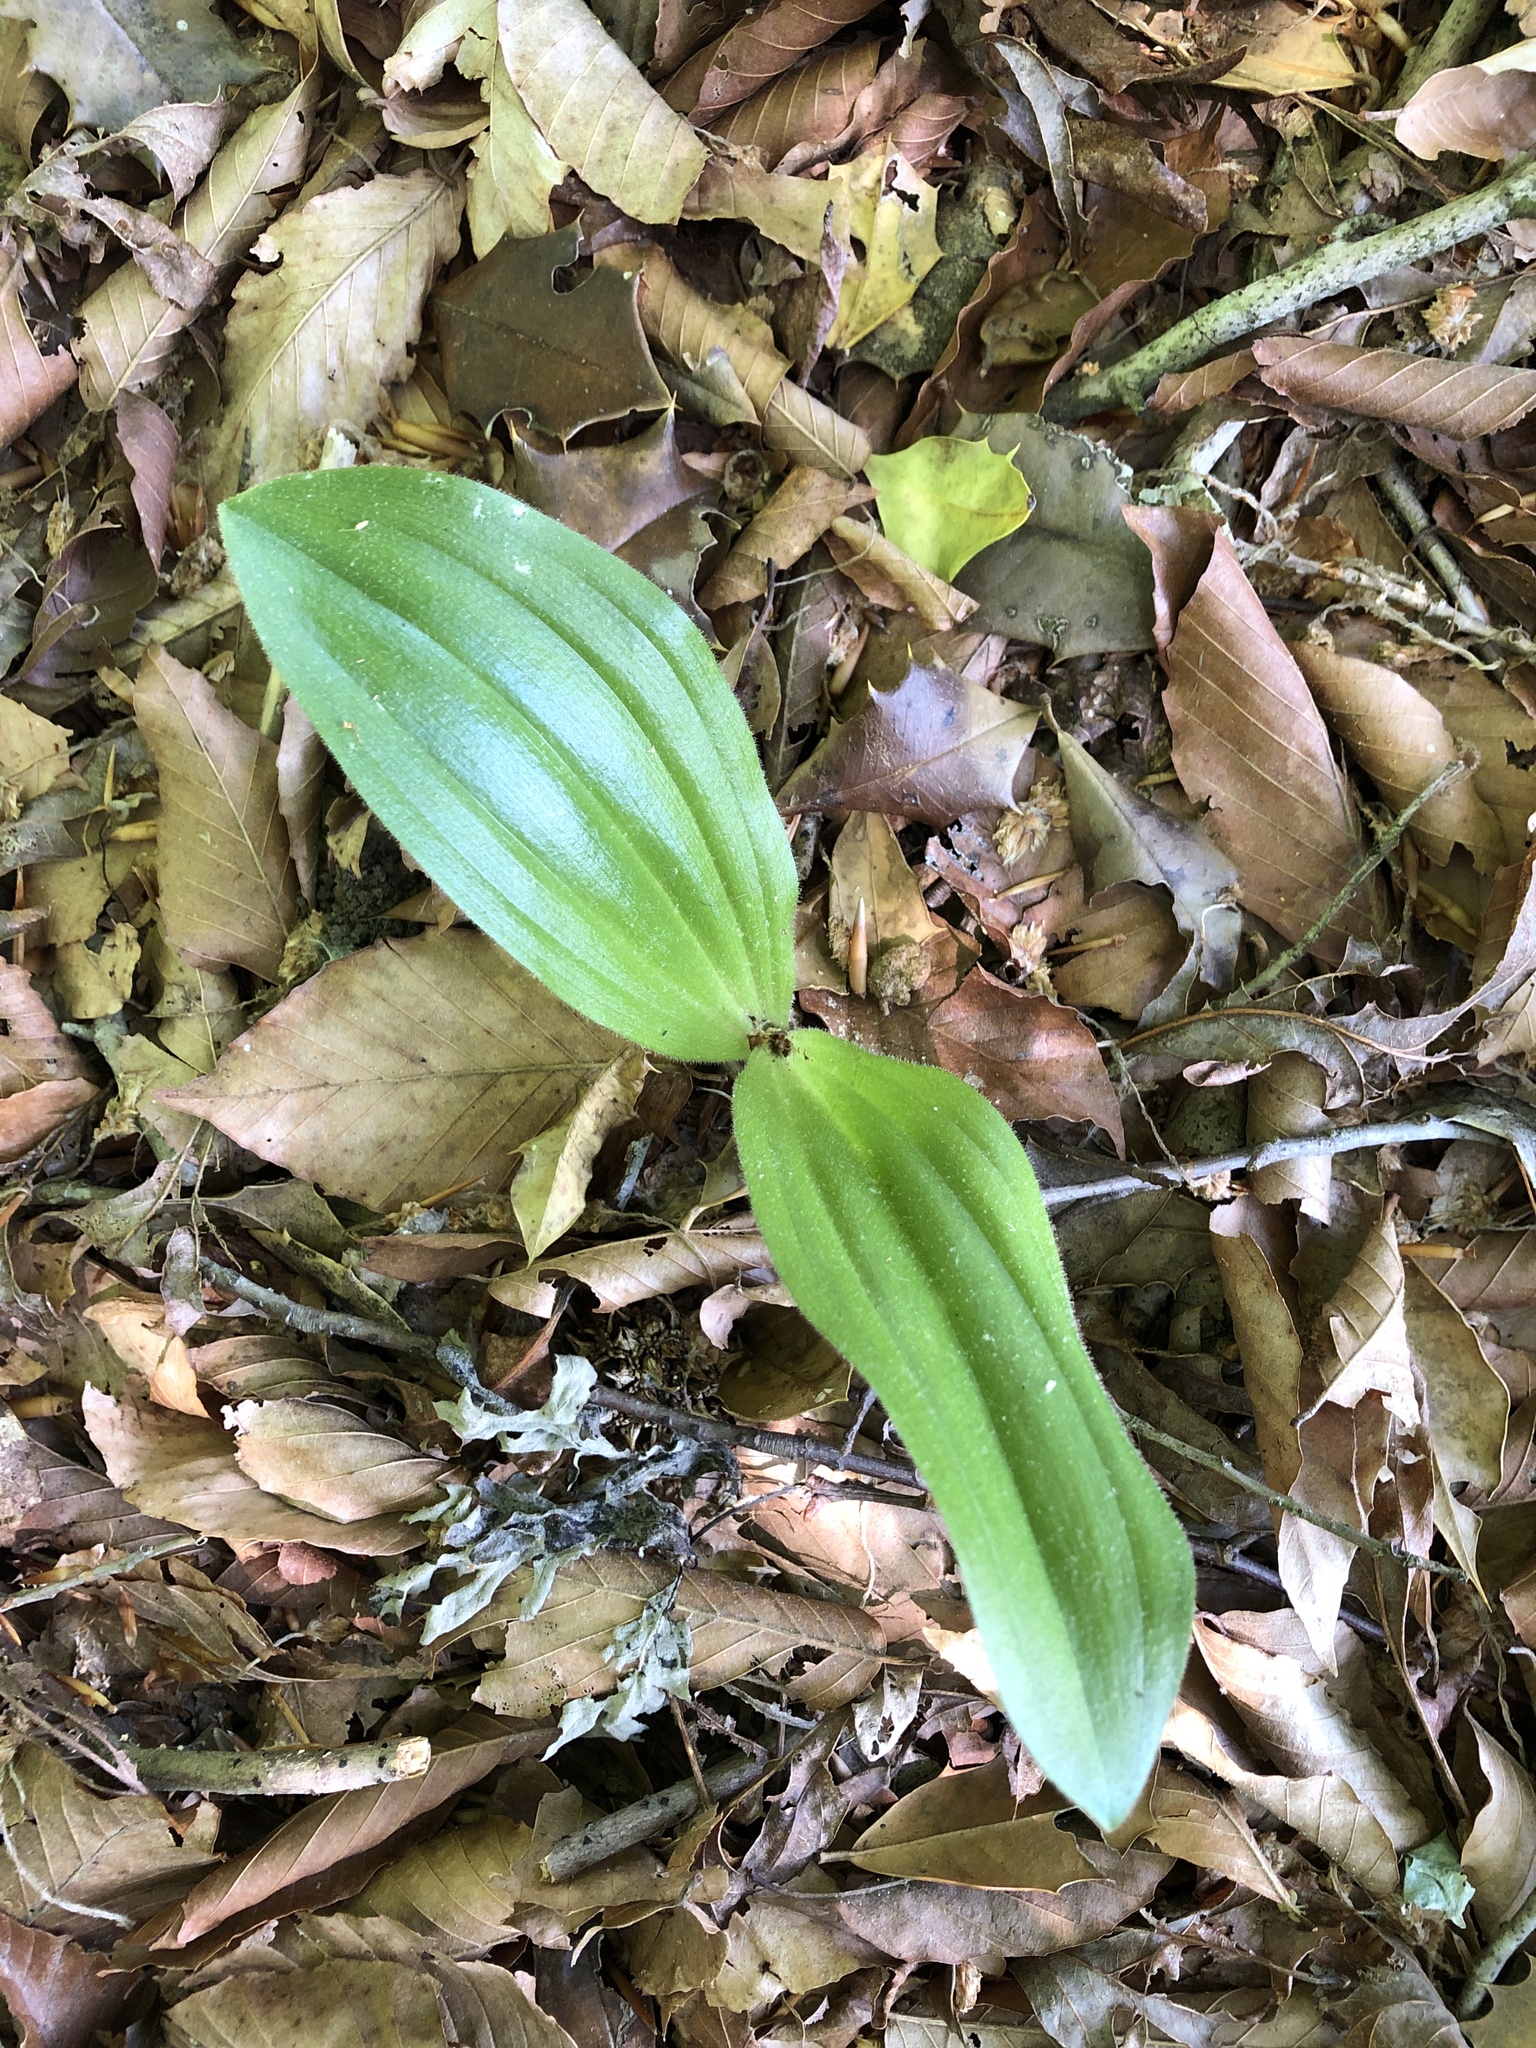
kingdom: Plantae
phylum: Tracheophyta
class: Liliopsida
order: Asparagales
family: Orchidaceae
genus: Cypripedium
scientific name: Cypripedium acaule
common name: Pink lady's-slipper
